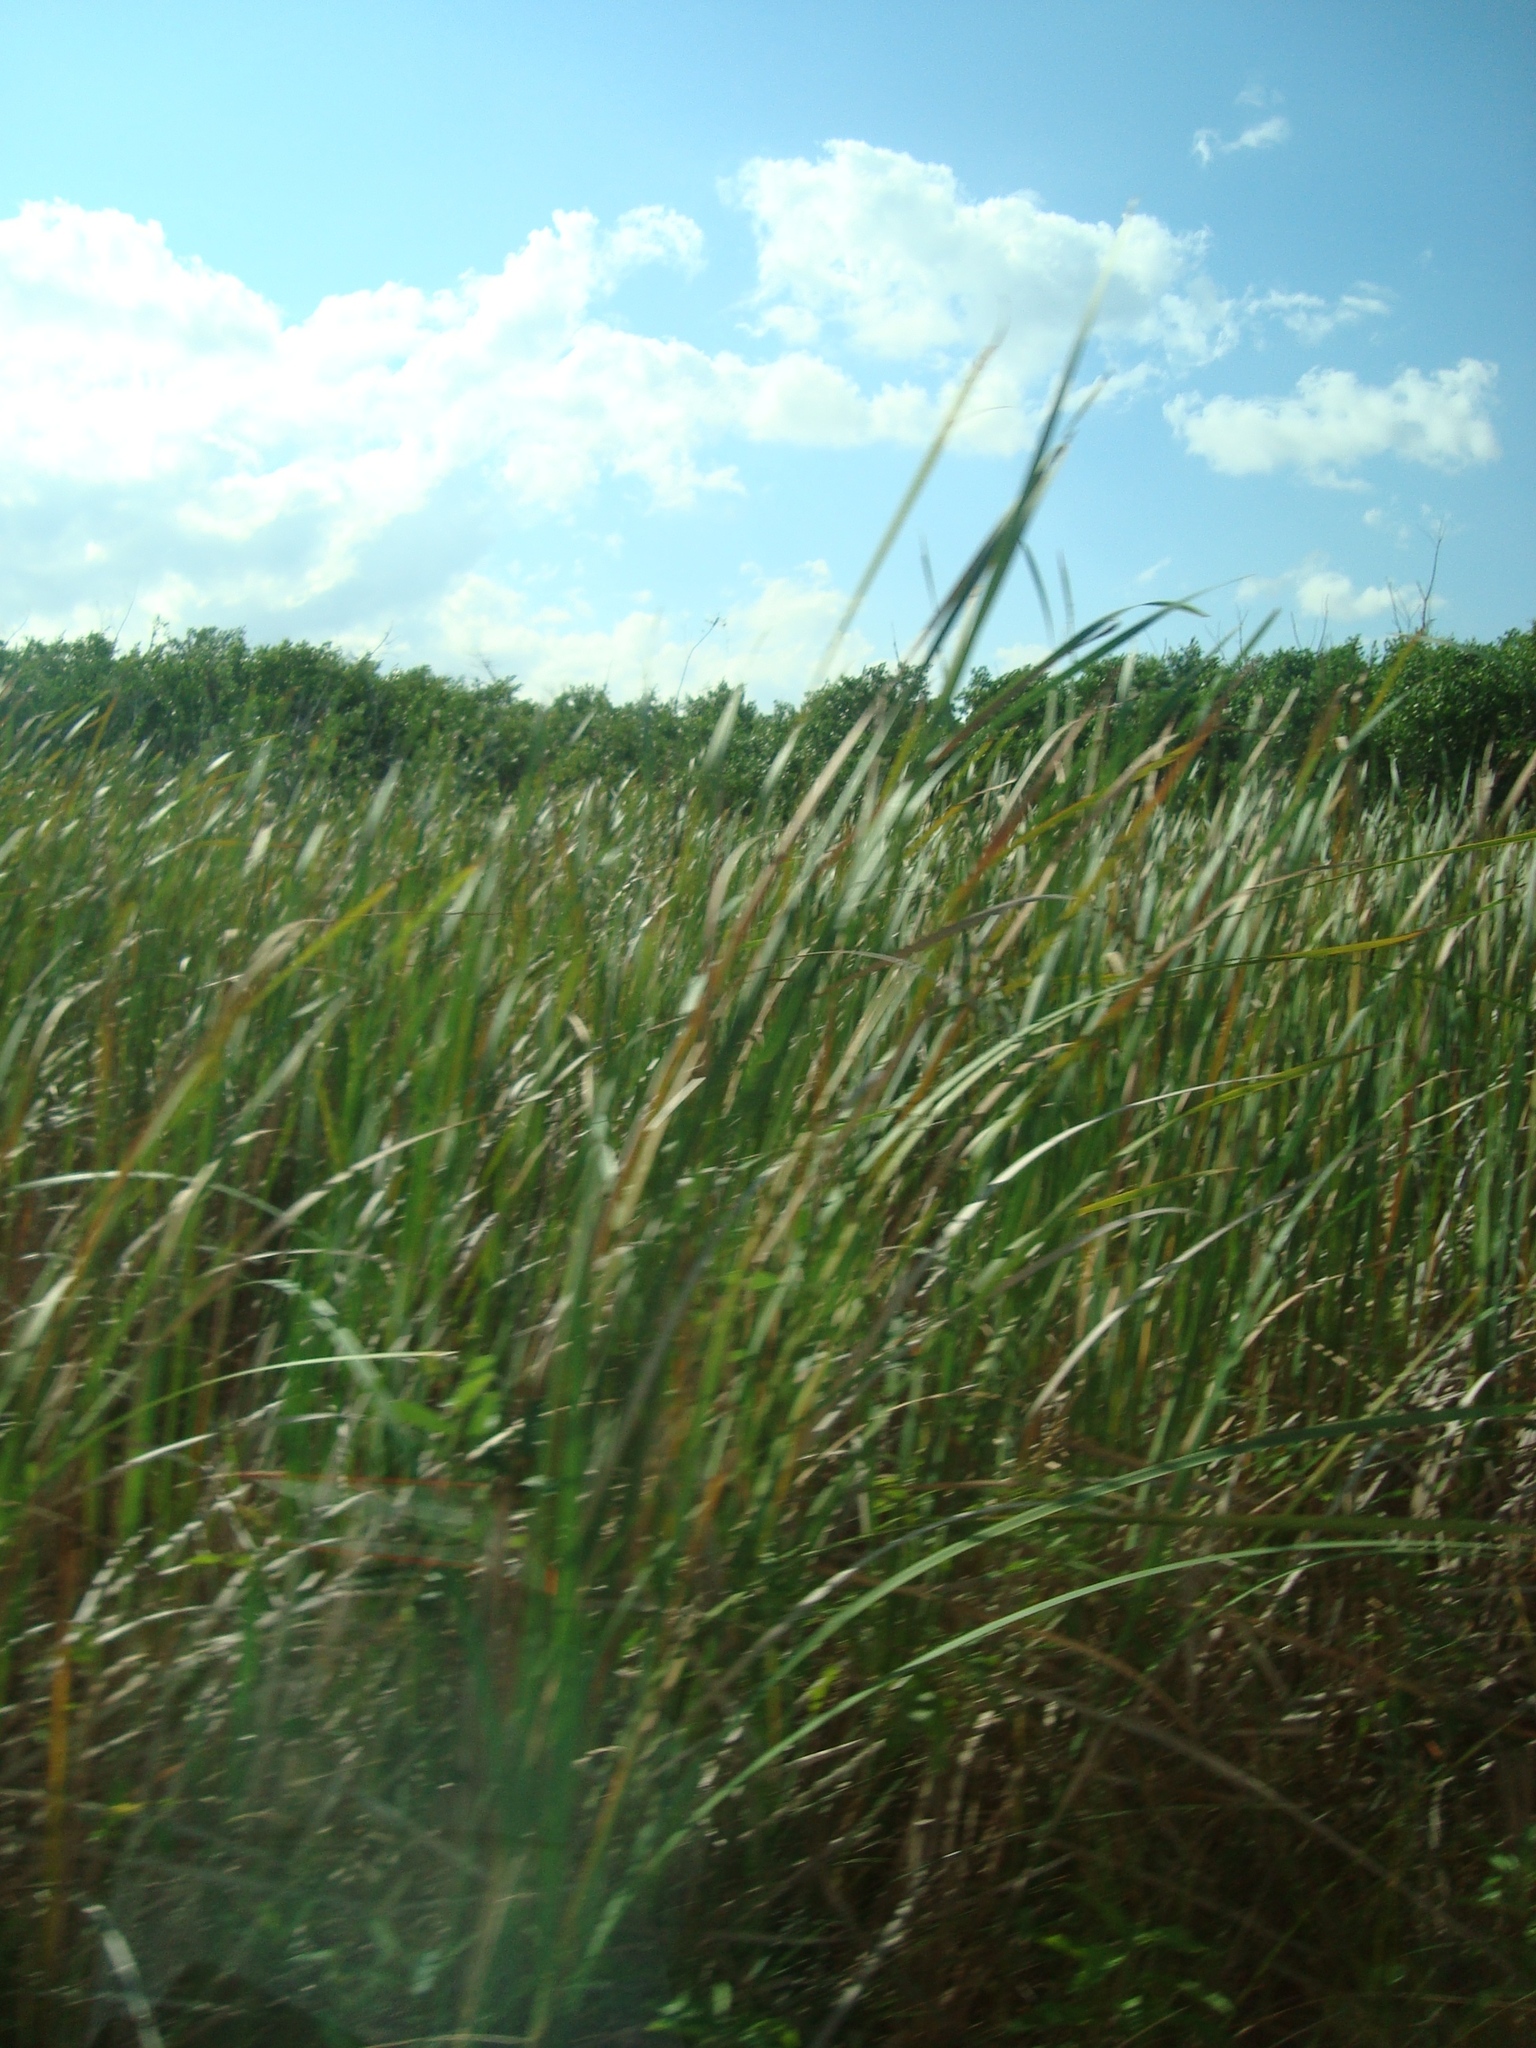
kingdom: Plantae
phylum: Tracheophyta
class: Liliopsida
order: Poales
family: Typhaceae
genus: Typha
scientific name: Typha domingensis
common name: Southern cattail
